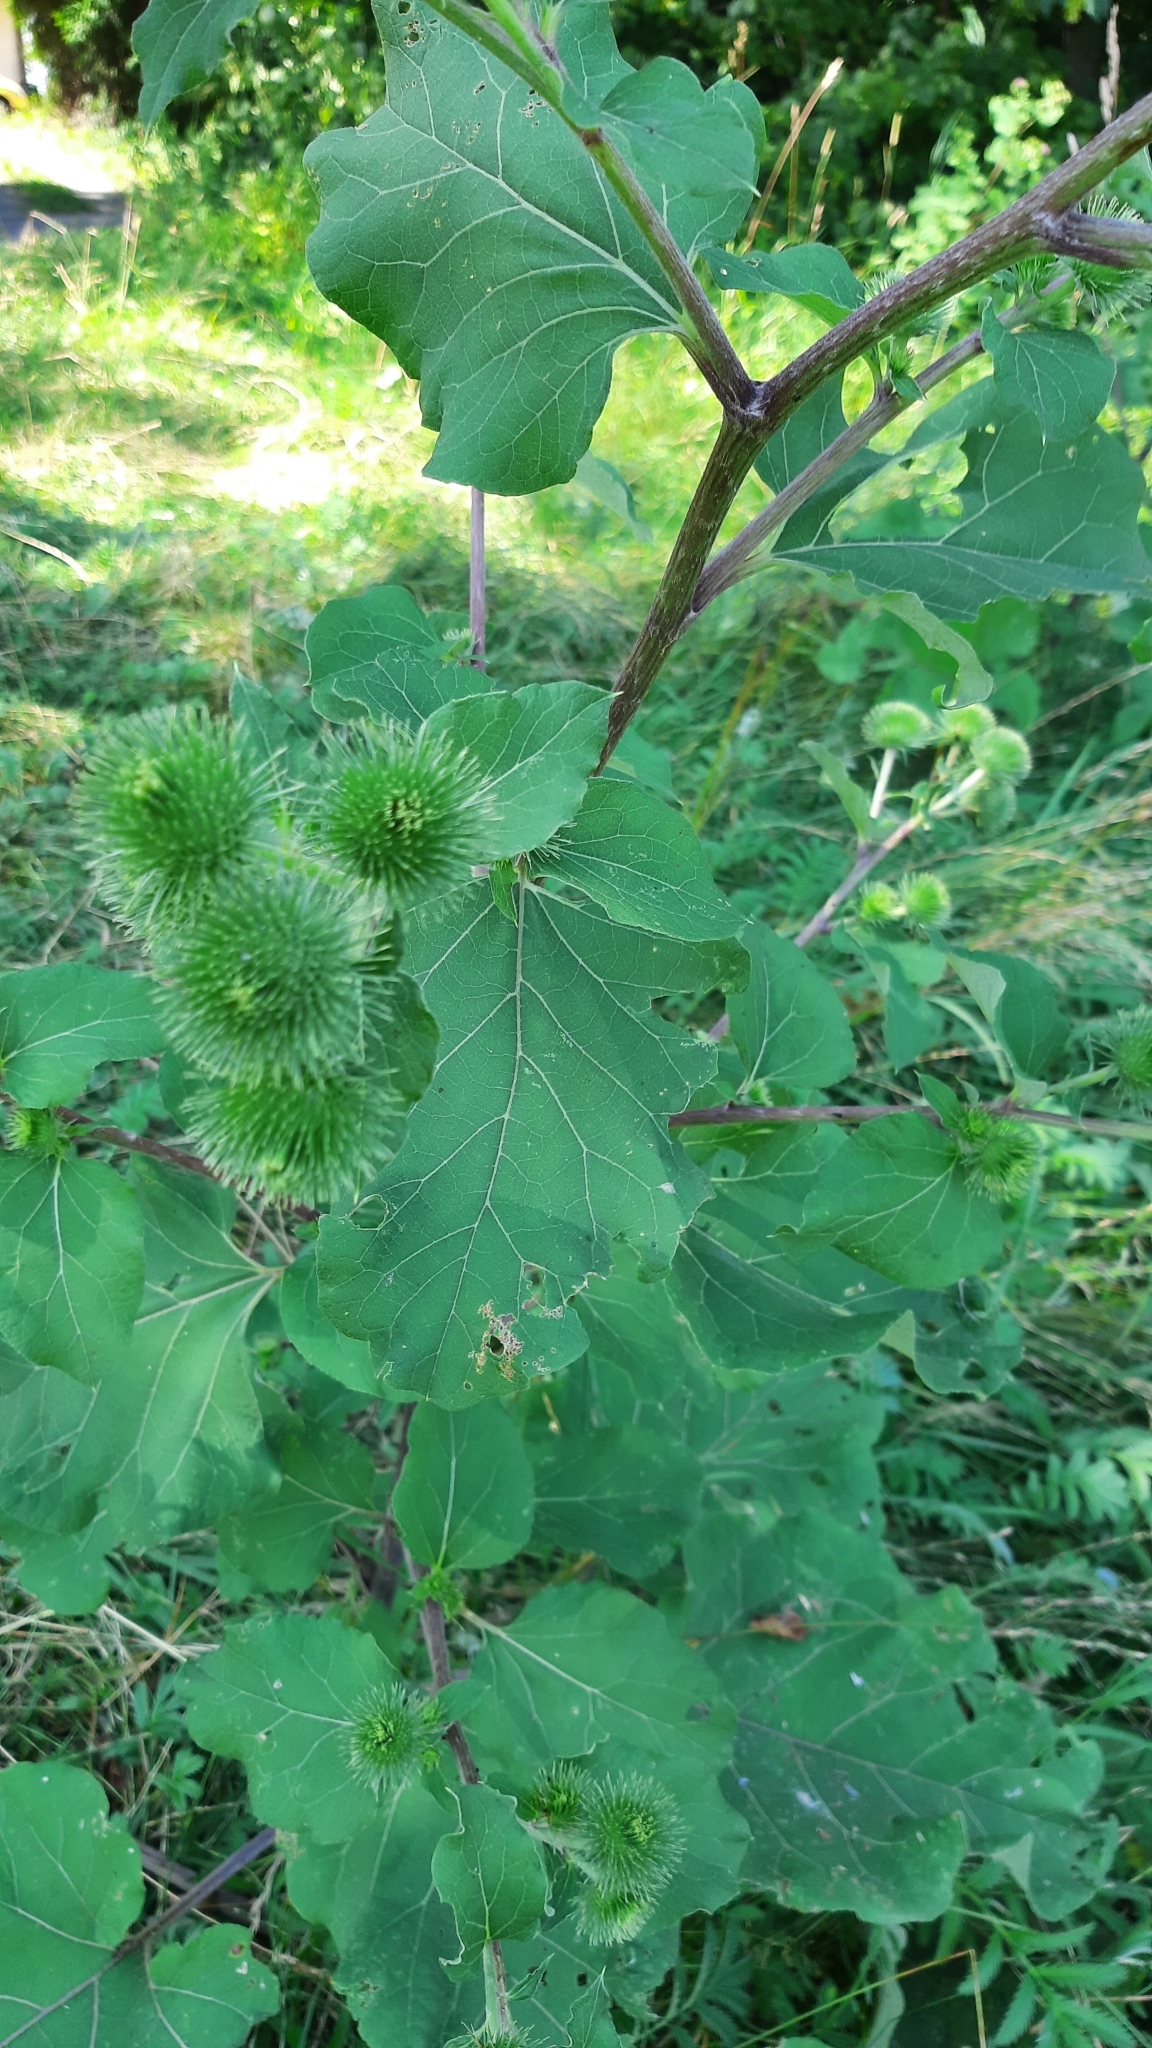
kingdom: Plantae
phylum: Tracheophyta
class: Magnoliopsida
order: Asterales
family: Asteraceae
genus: Arctium
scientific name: Arctium lappa
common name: Greater burdock
